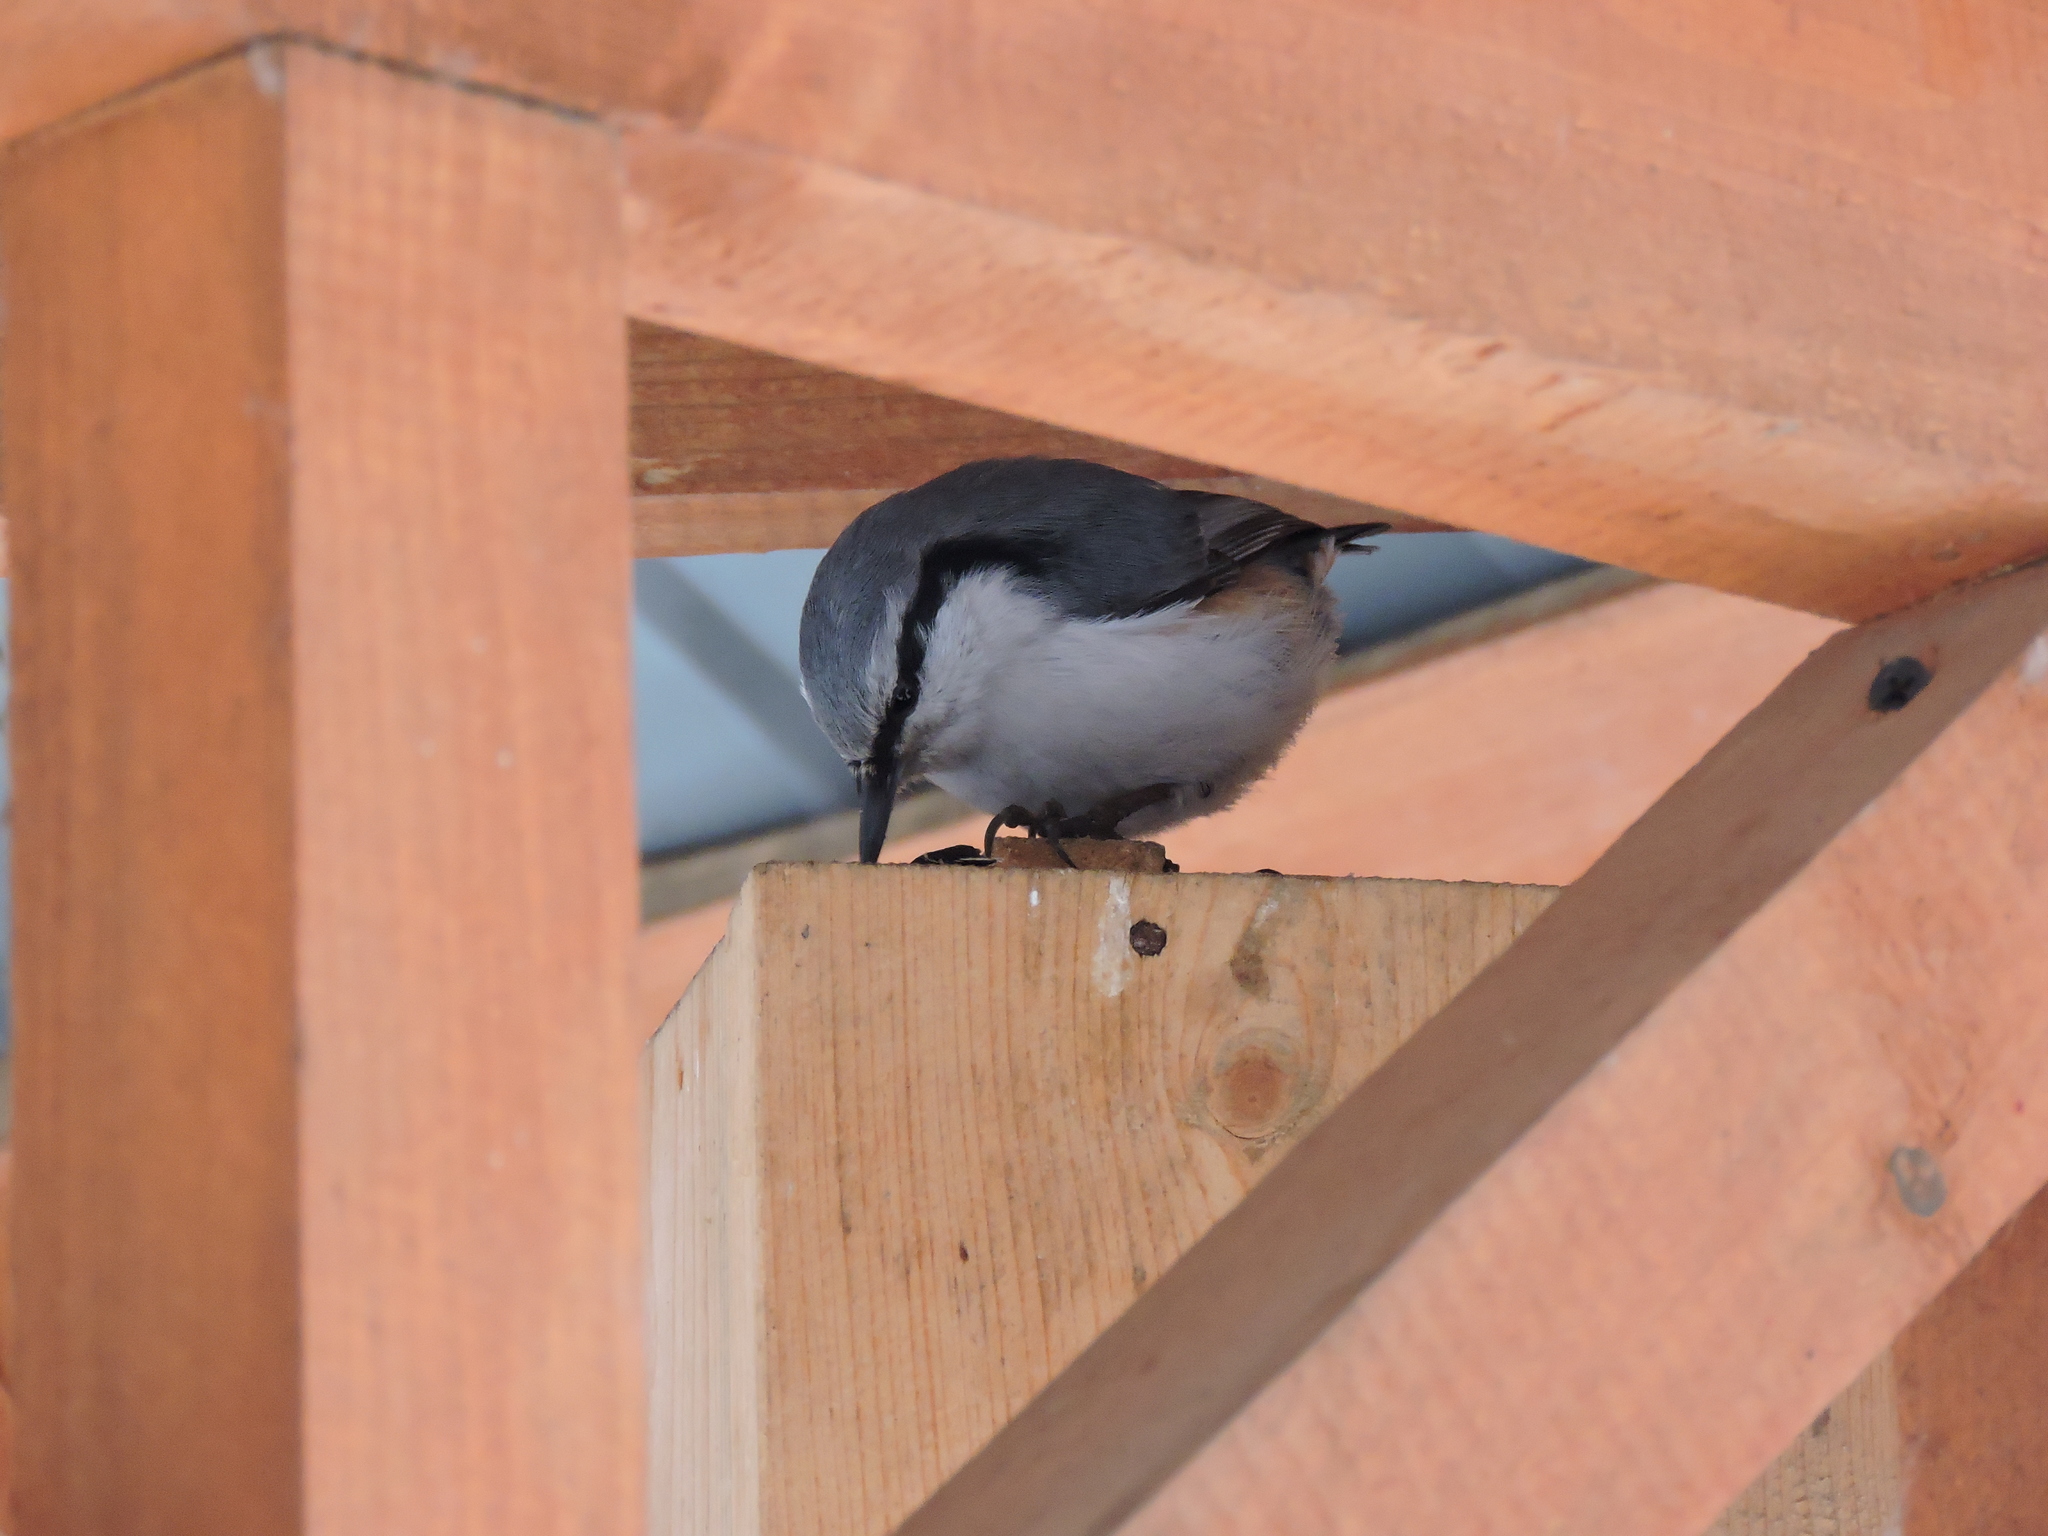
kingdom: Animalia
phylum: Chordata
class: Aves
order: Passeriformes
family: Sittidae
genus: Sitta
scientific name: Sitta europaea
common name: Eurasian nuthatch
